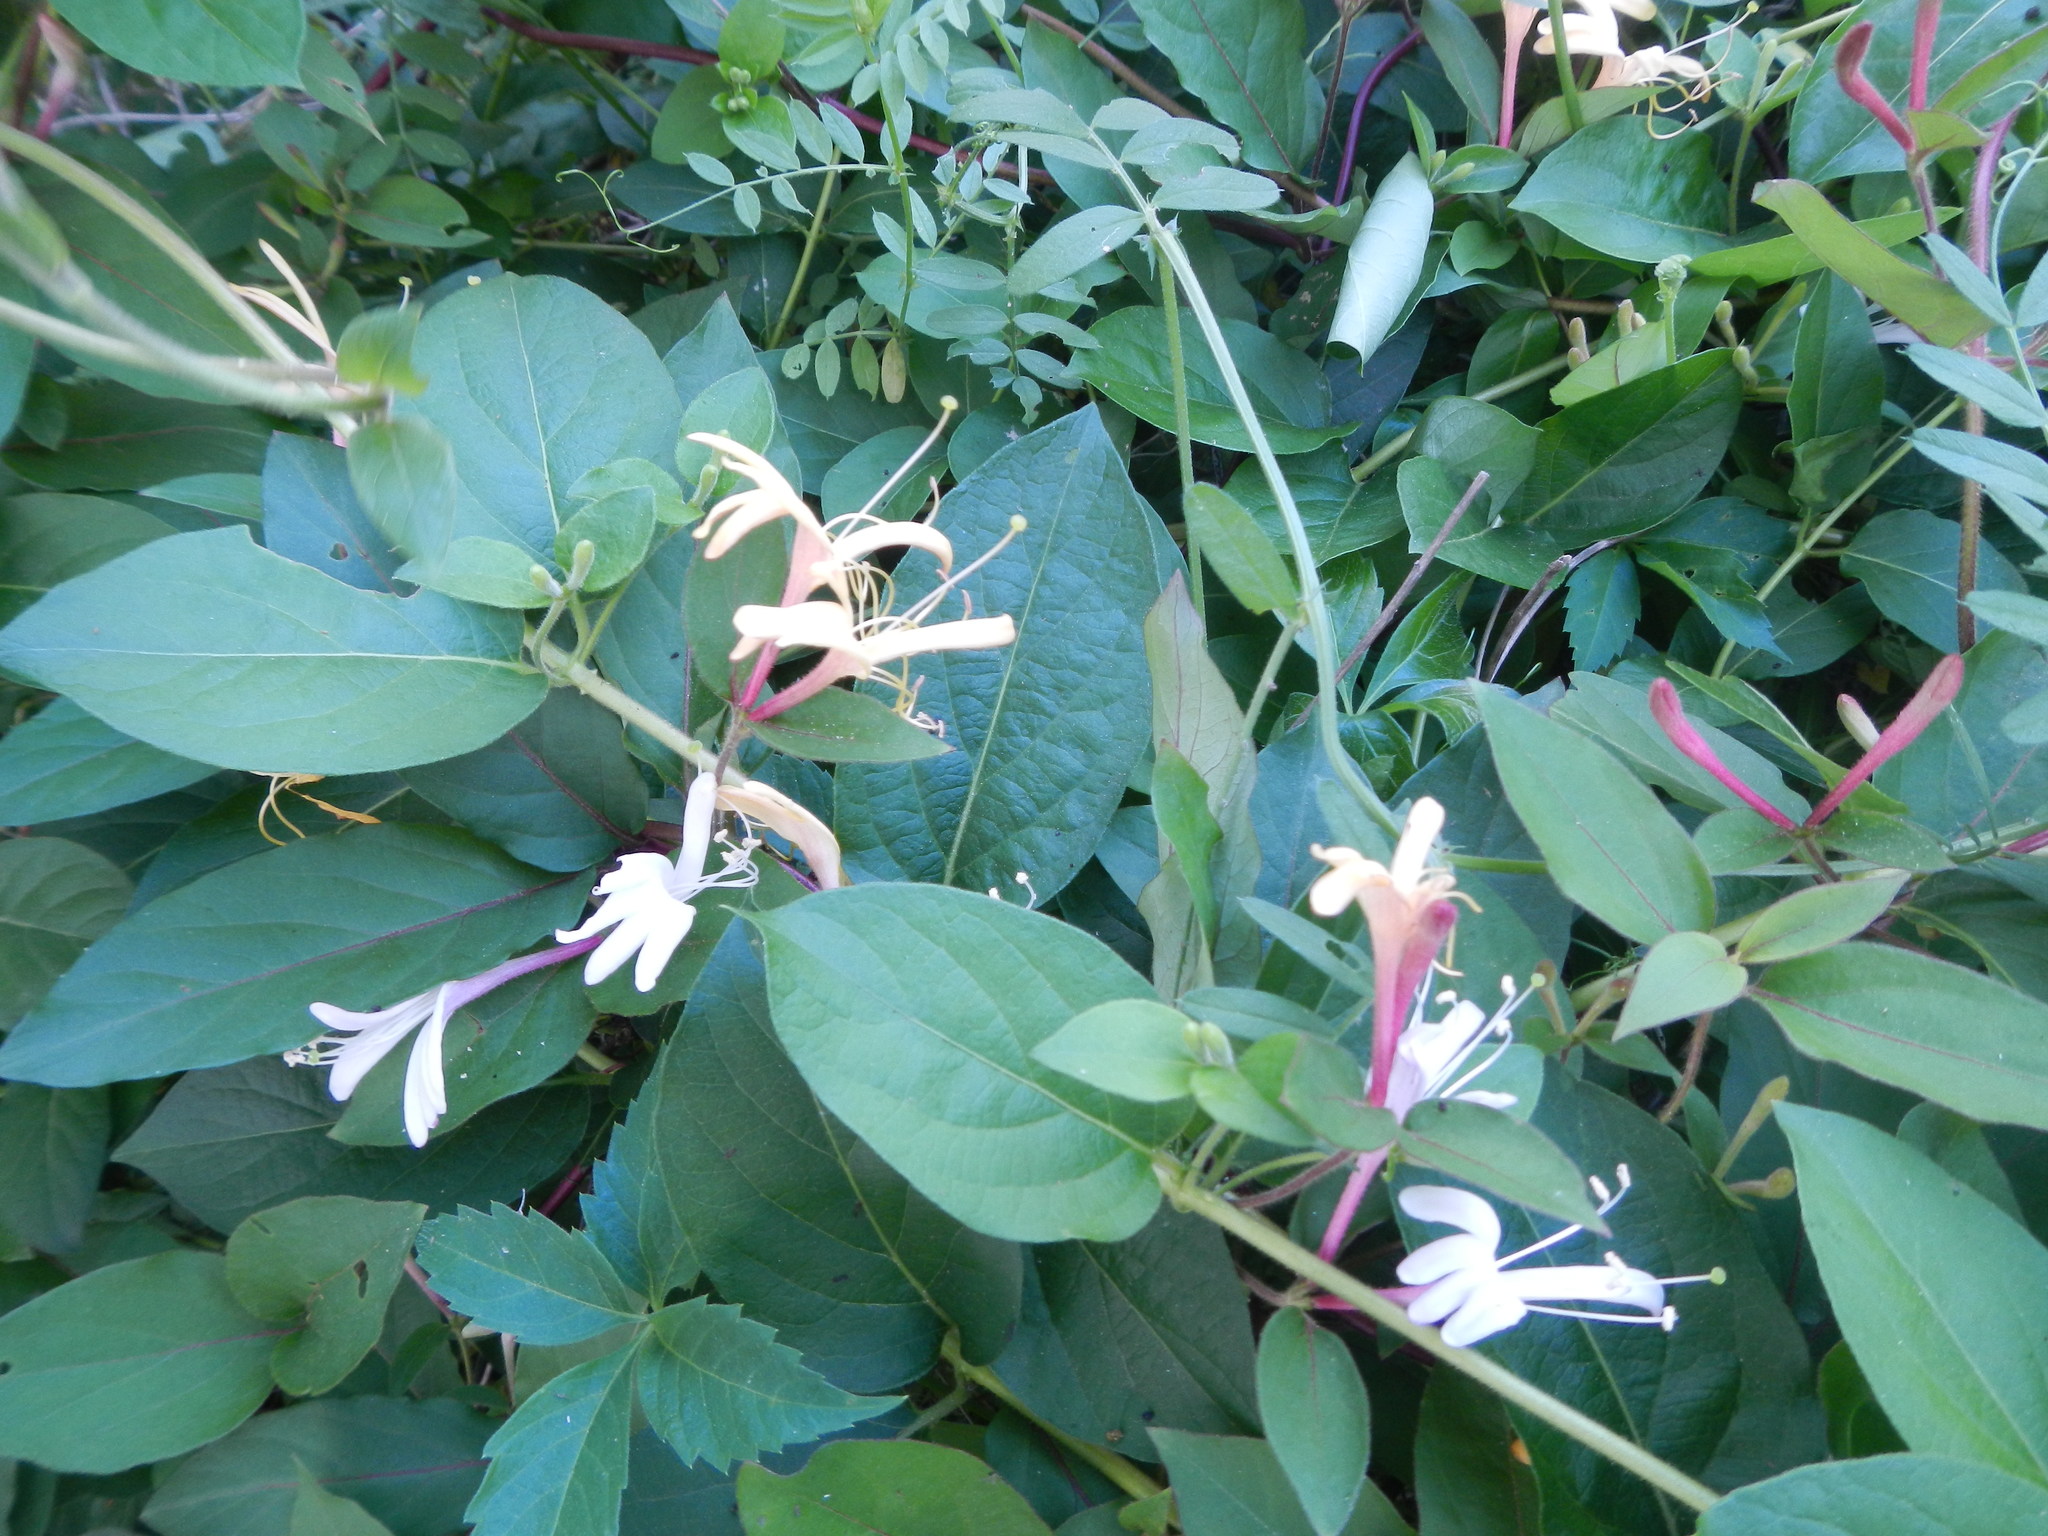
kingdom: Plantae
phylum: Tracheophyta
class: Magnoliopsida
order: Dipsacales
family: Caprifoliaceae
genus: Lonicera
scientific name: Lonicera japonica
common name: Japanese honeysuckle
